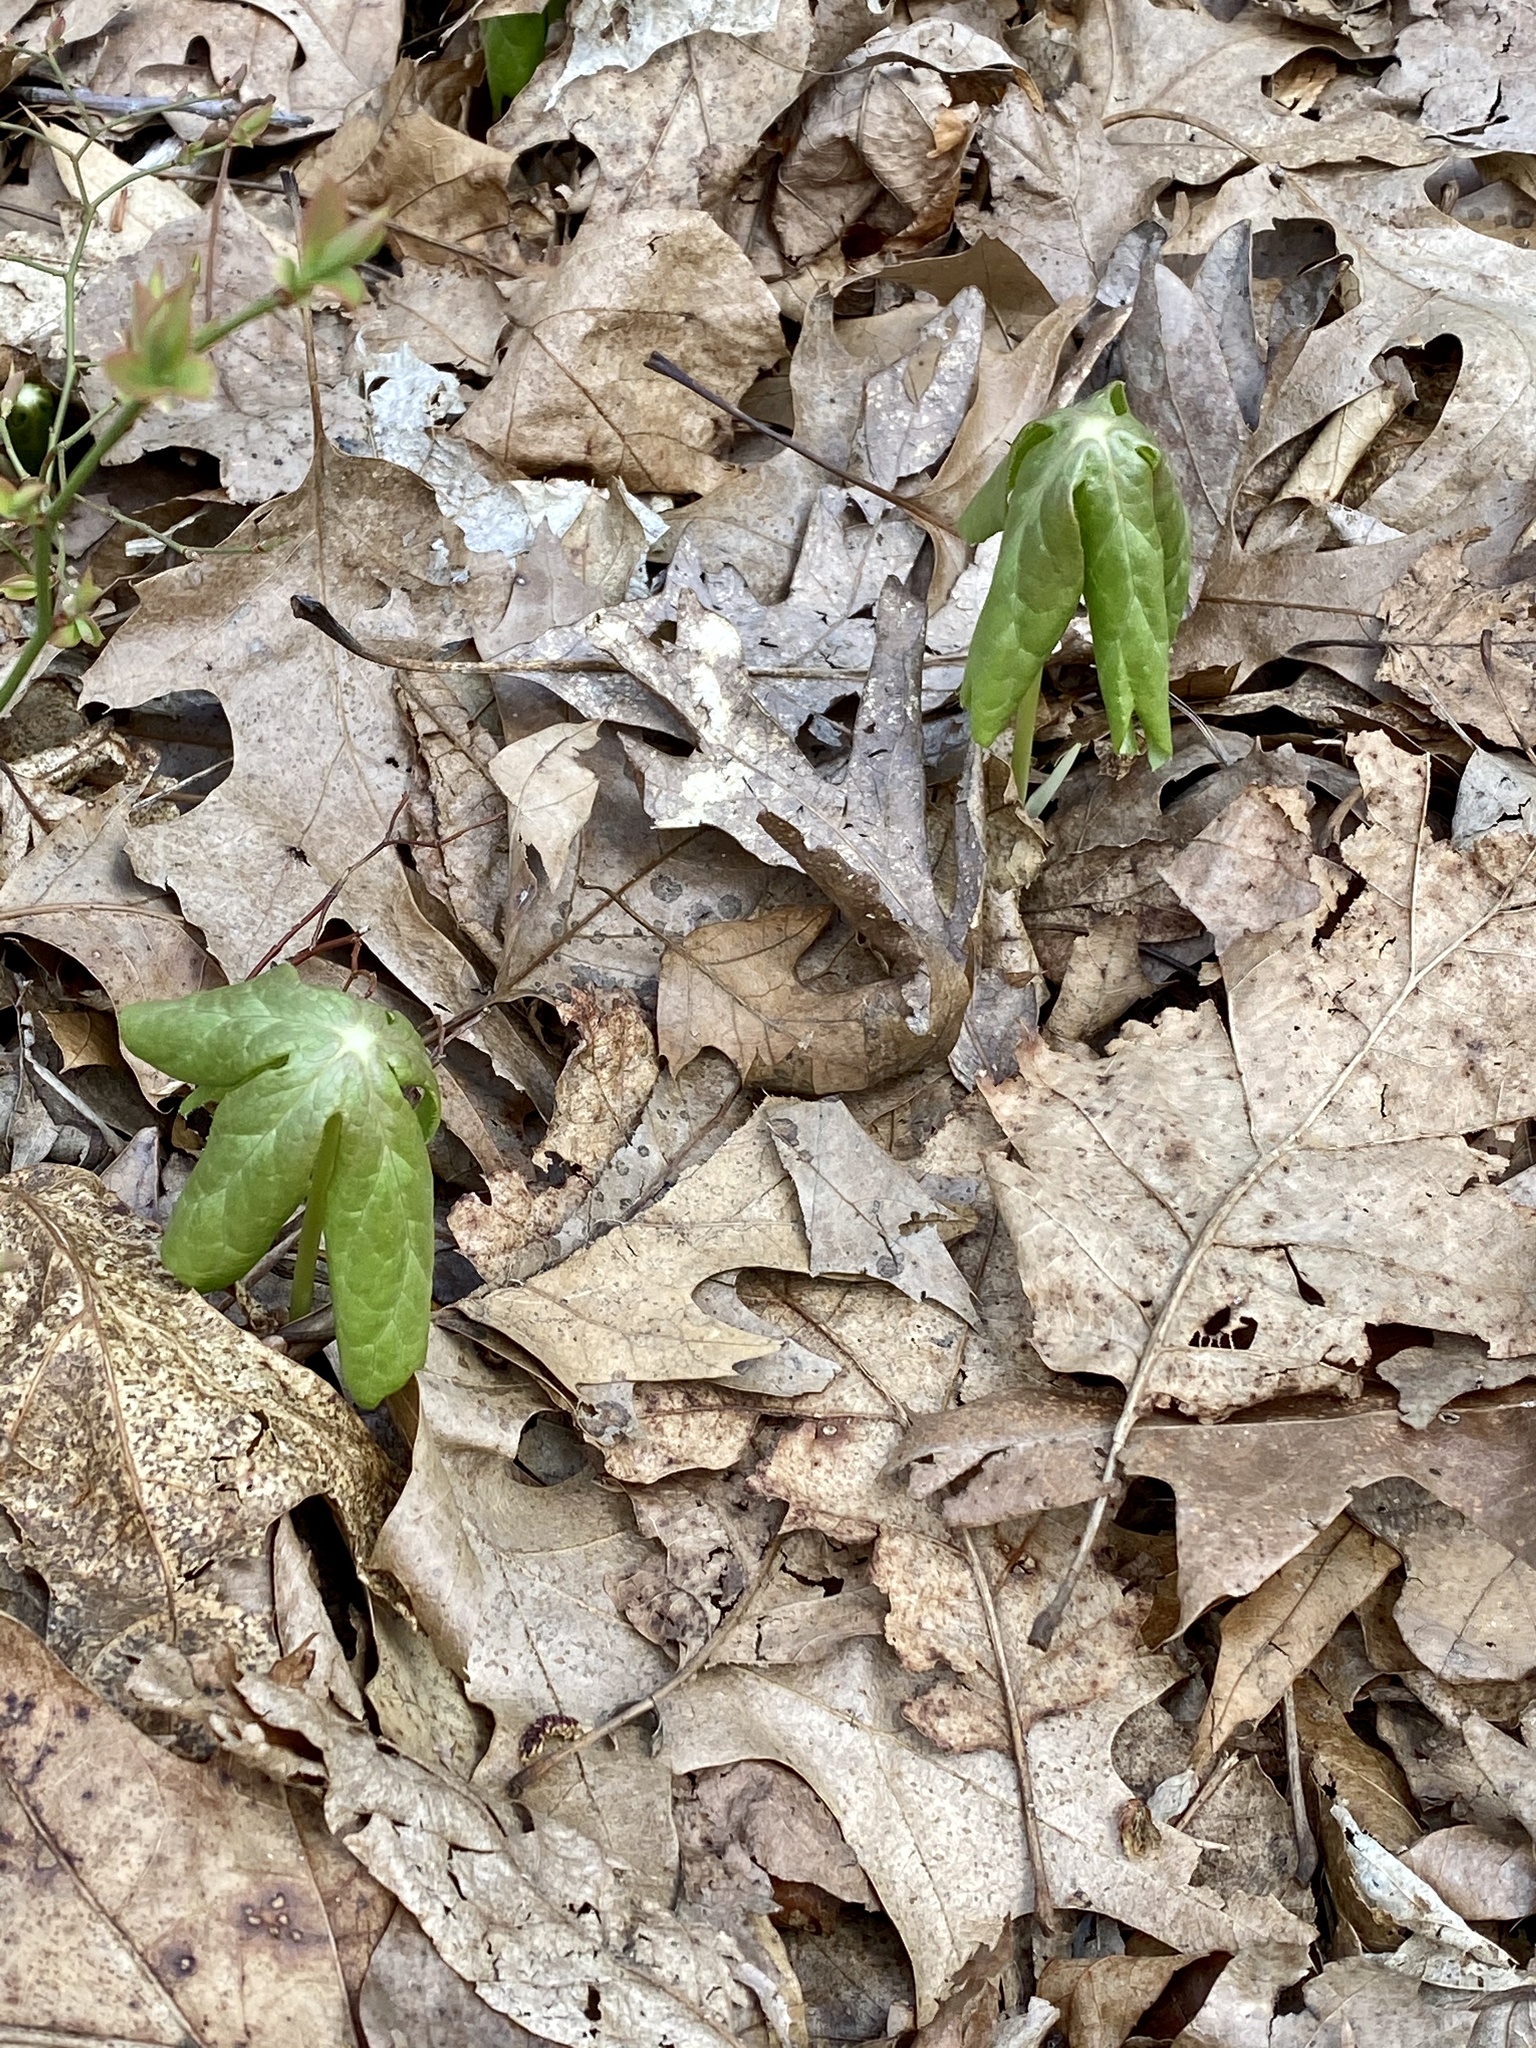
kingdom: Plantae
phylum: Tracheophyta
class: Magnoliopsida
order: Ranunculales
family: Berberidaceae
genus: Podophyllum
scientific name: Podophyllum peltatum
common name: Wild mandrake
